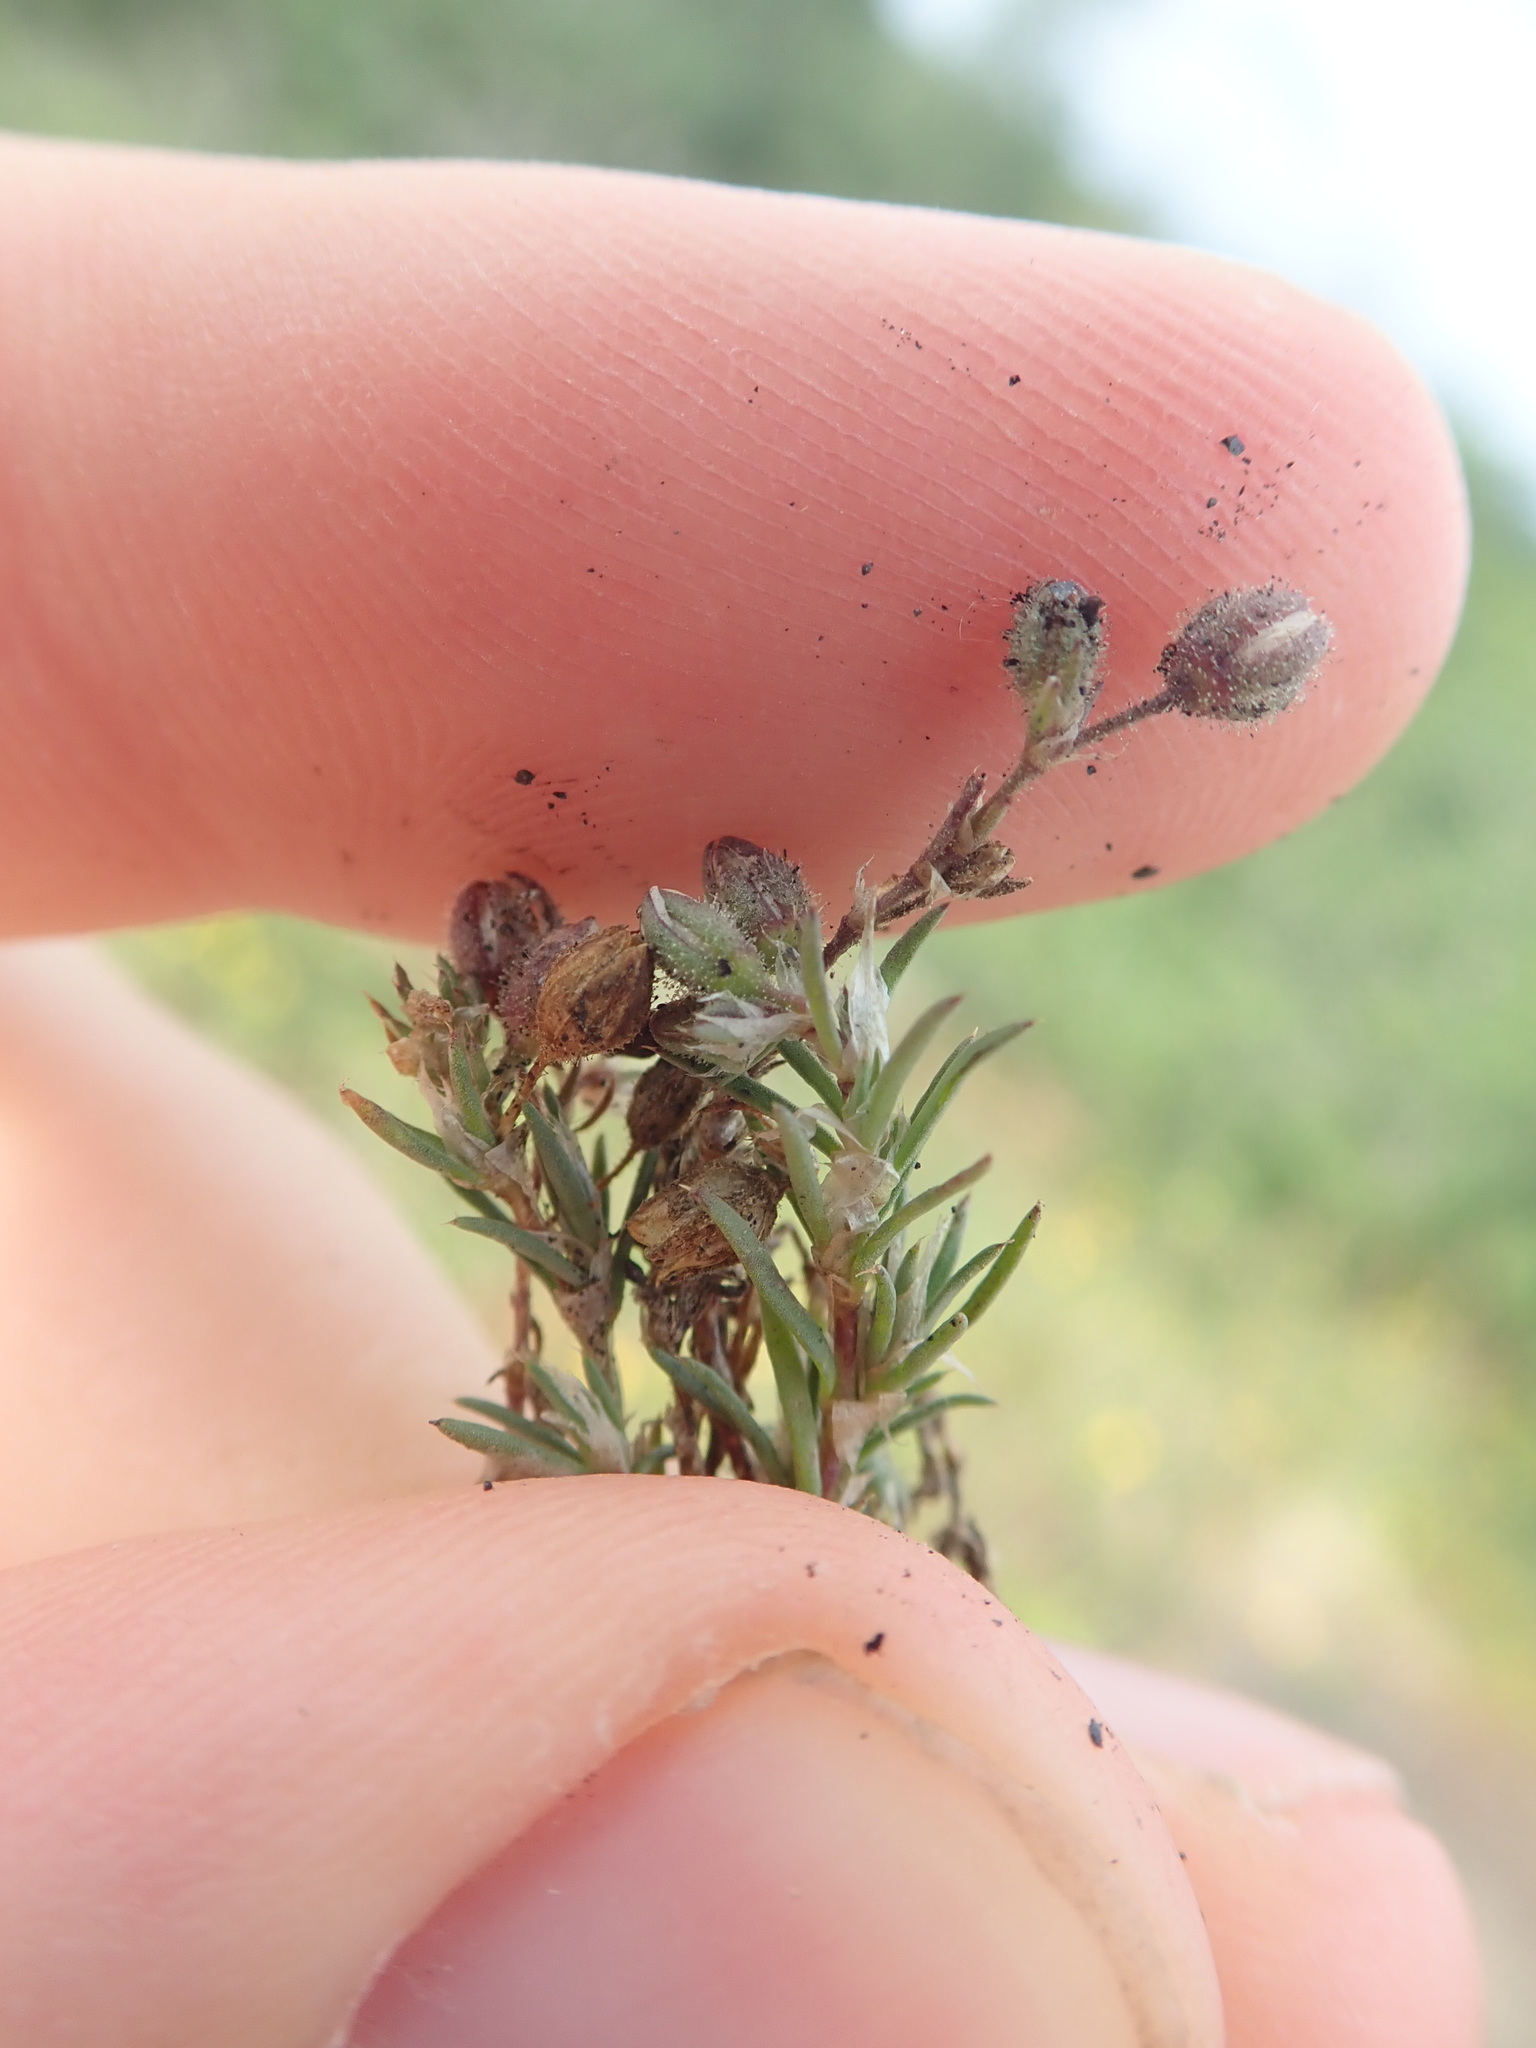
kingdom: Plantae
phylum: Tracheophyta
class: Magnoliopsida
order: Caryophyllales
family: Caryophyllaceae
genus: Spergularia
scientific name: Spergularia rubra
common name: Red sand-spurrey
